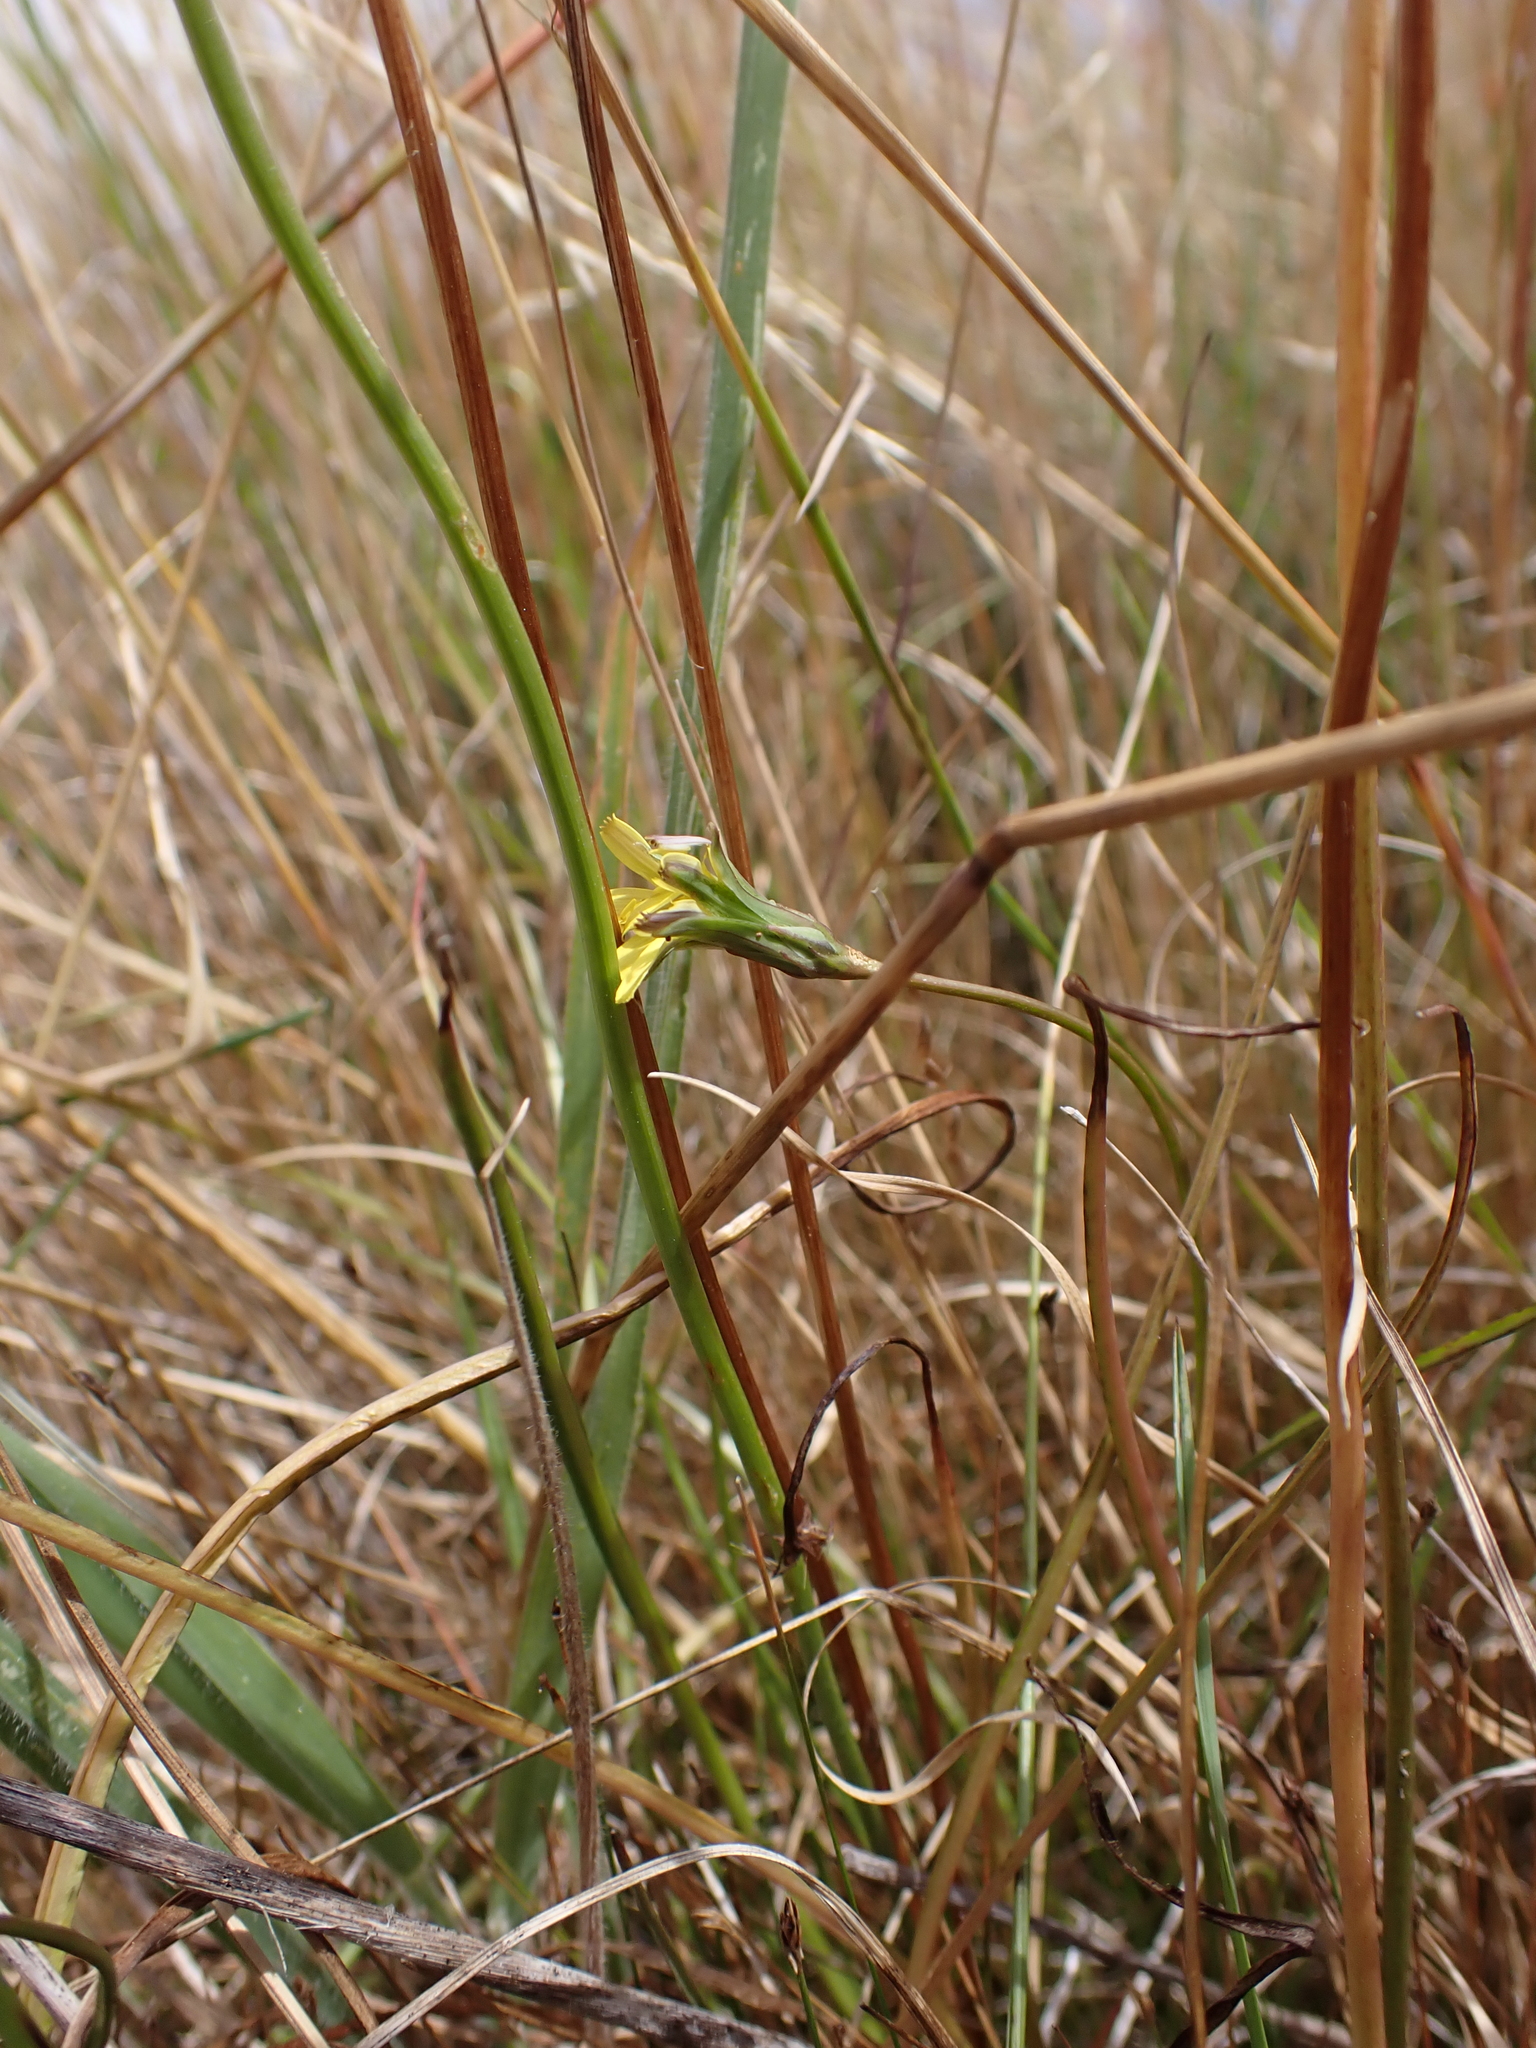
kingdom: Plantae
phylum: Tracheophyta
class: Magnoliopsida
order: Asterales
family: Asteraceae
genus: Microseris
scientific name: Microseris scapigera
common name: Yam daisy
